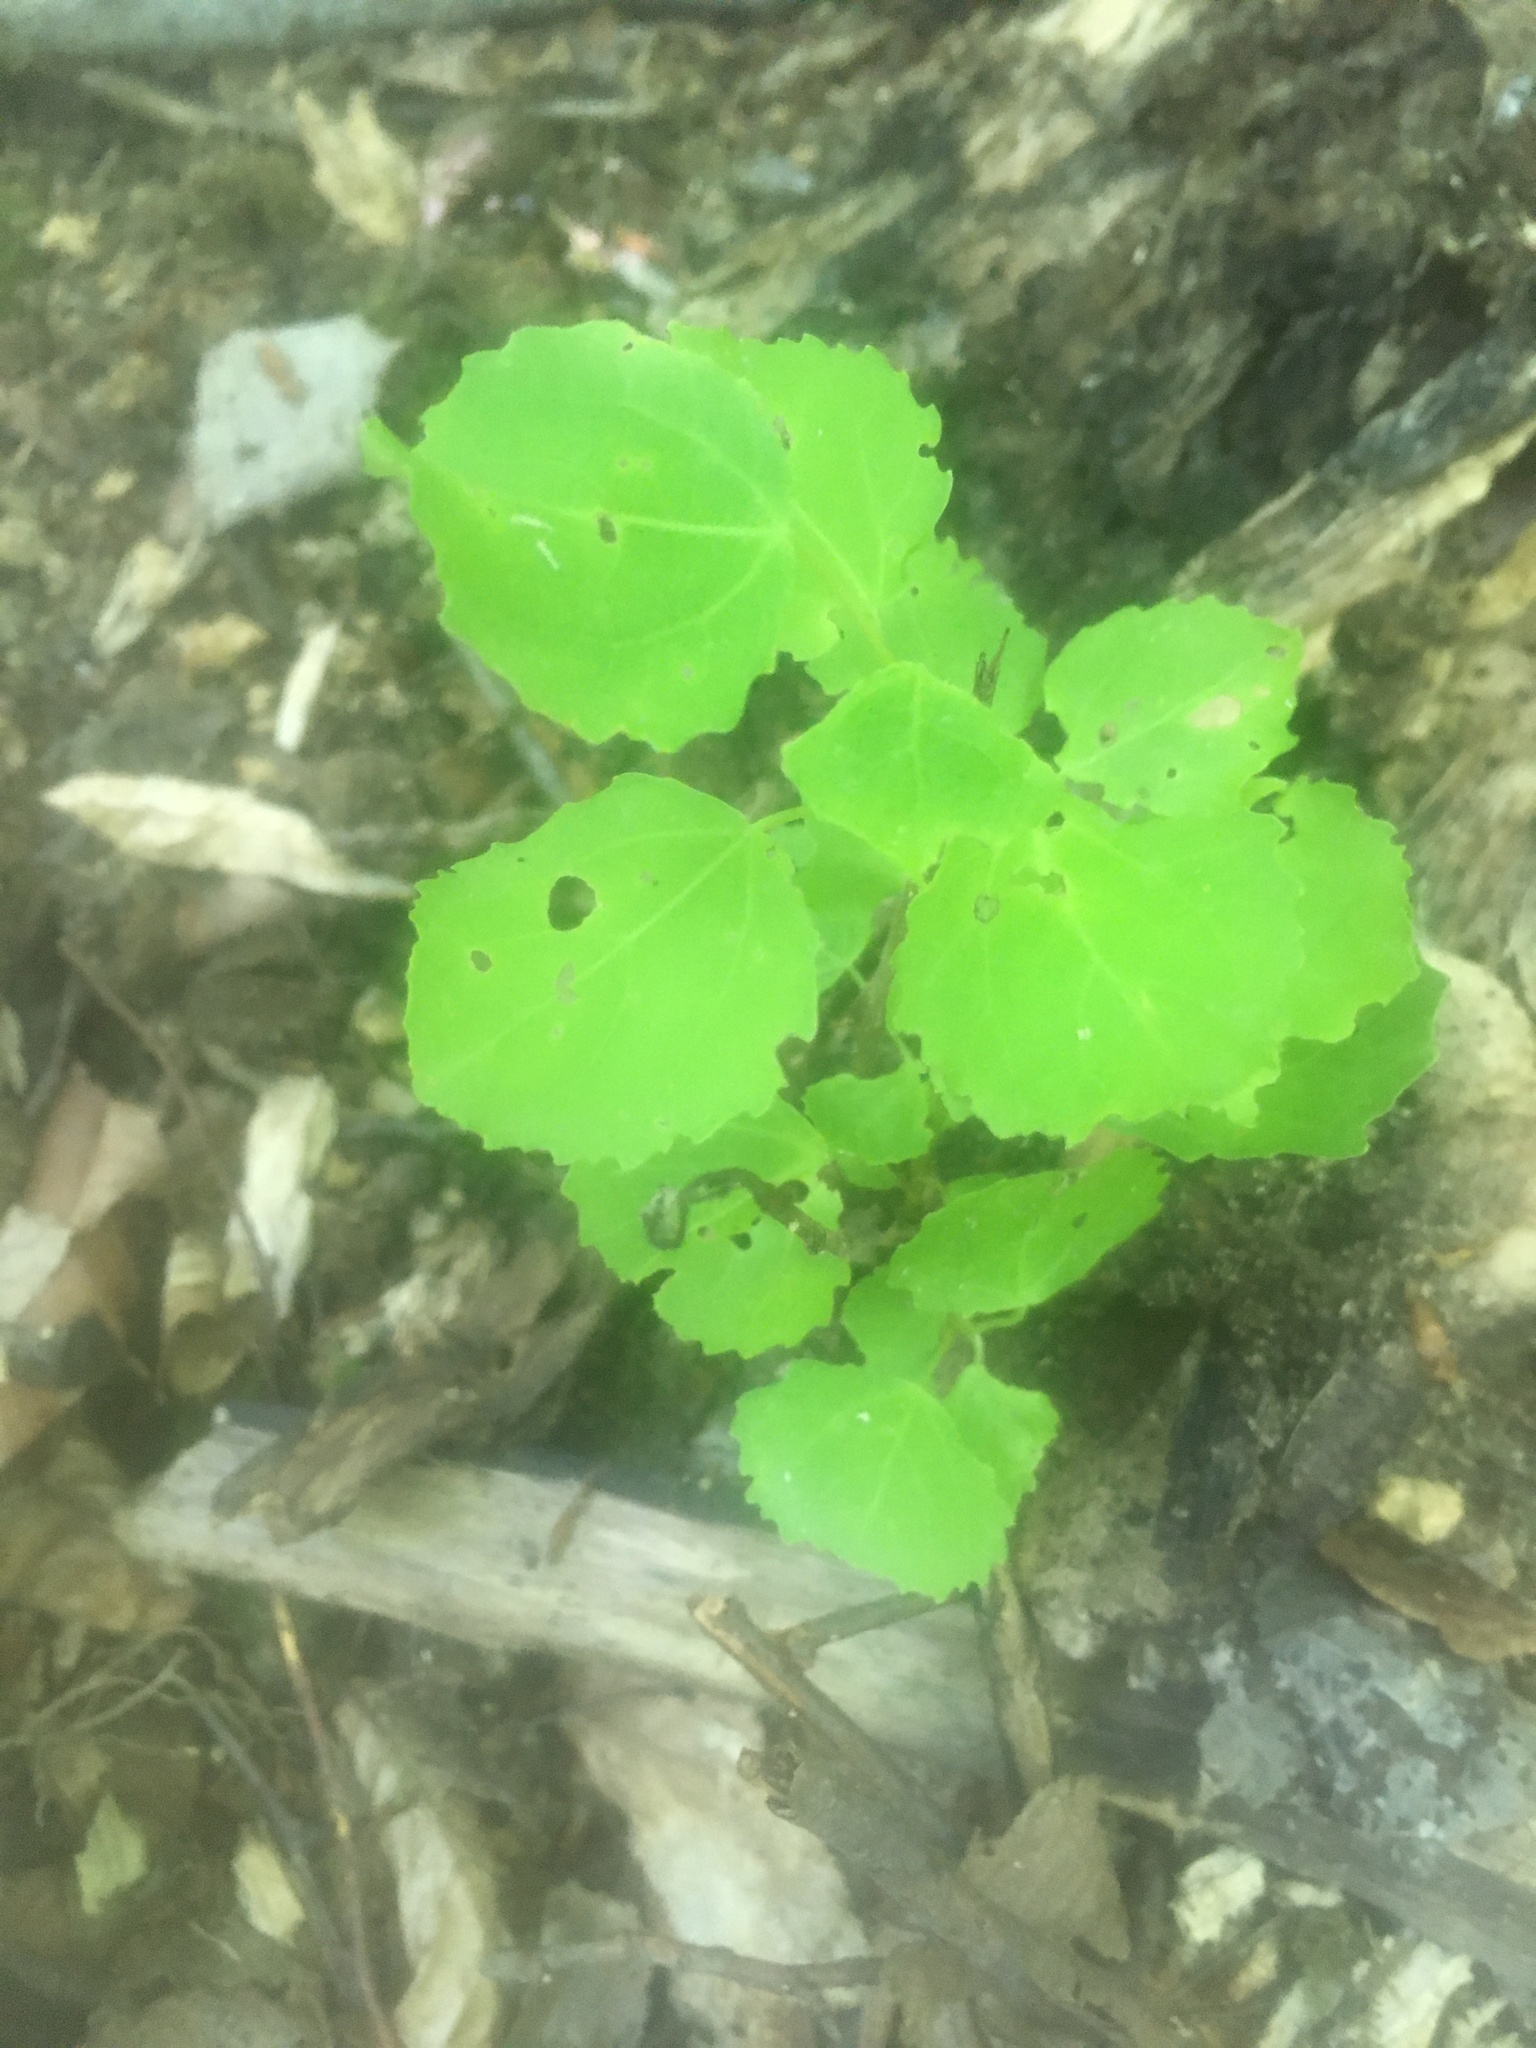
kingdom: Plantae
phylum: Tracheophyta
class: Magnoliopsida
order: Malpighiales
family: Salicaceae
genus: Populus
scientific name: Populus tremula
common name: European aspen
